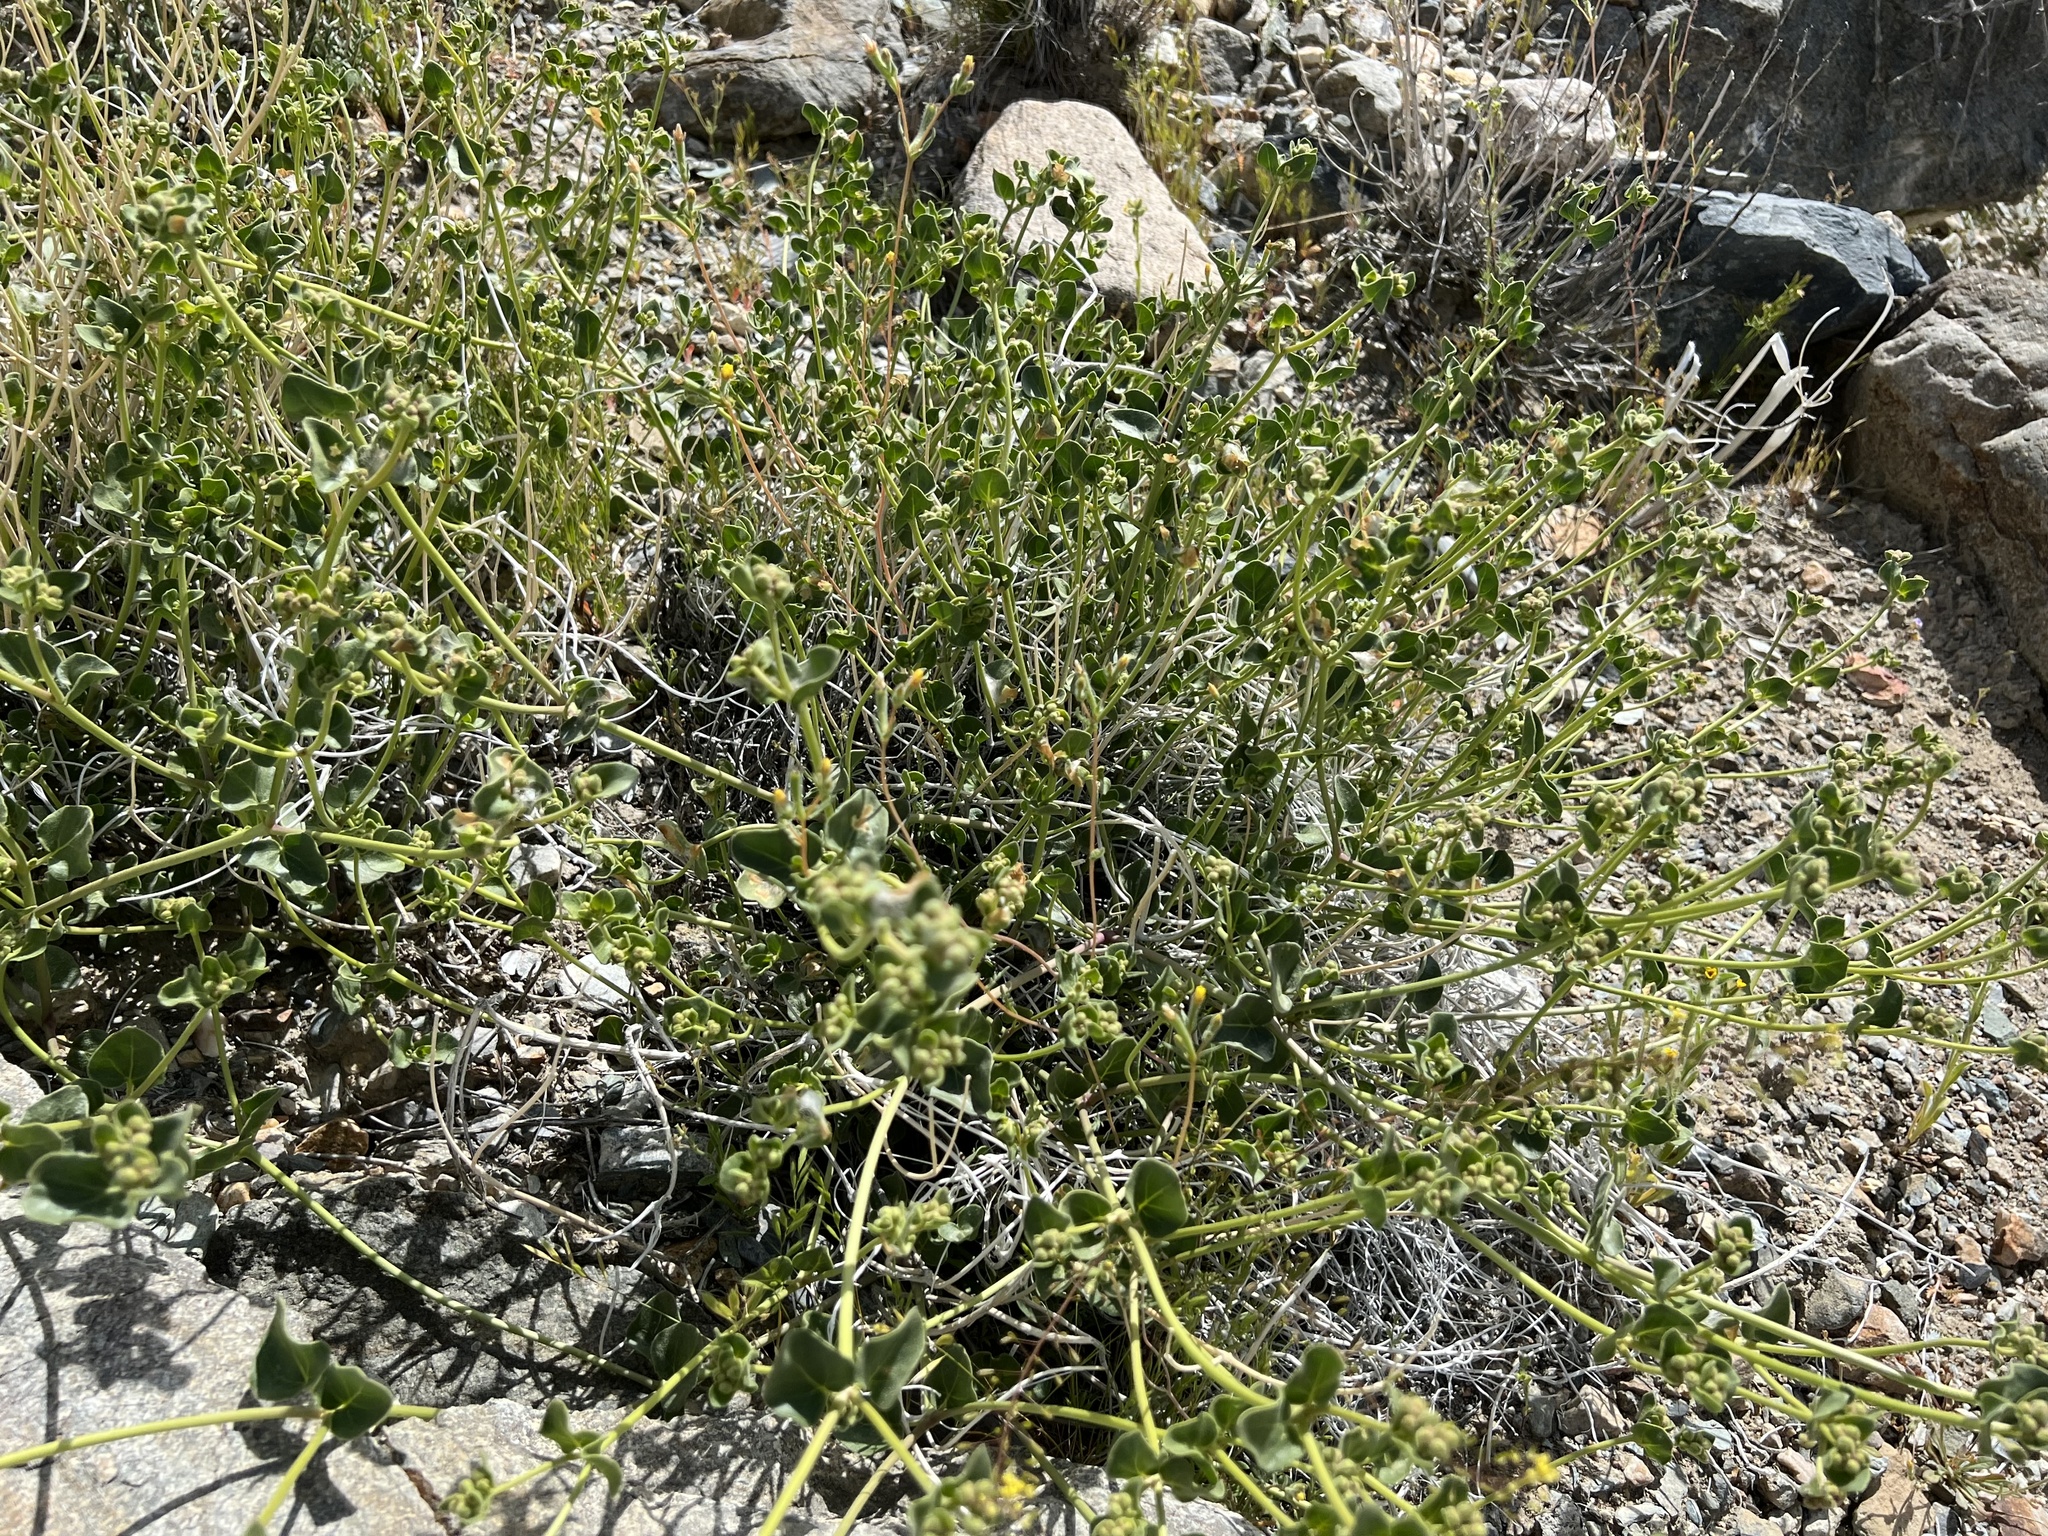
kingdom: Plantae
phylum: Tracheophyta
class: Magnoliopsida
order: Caryophyllales
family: Nyctaginaceae
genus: Mirabilis
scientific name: Mirabilis laevis
